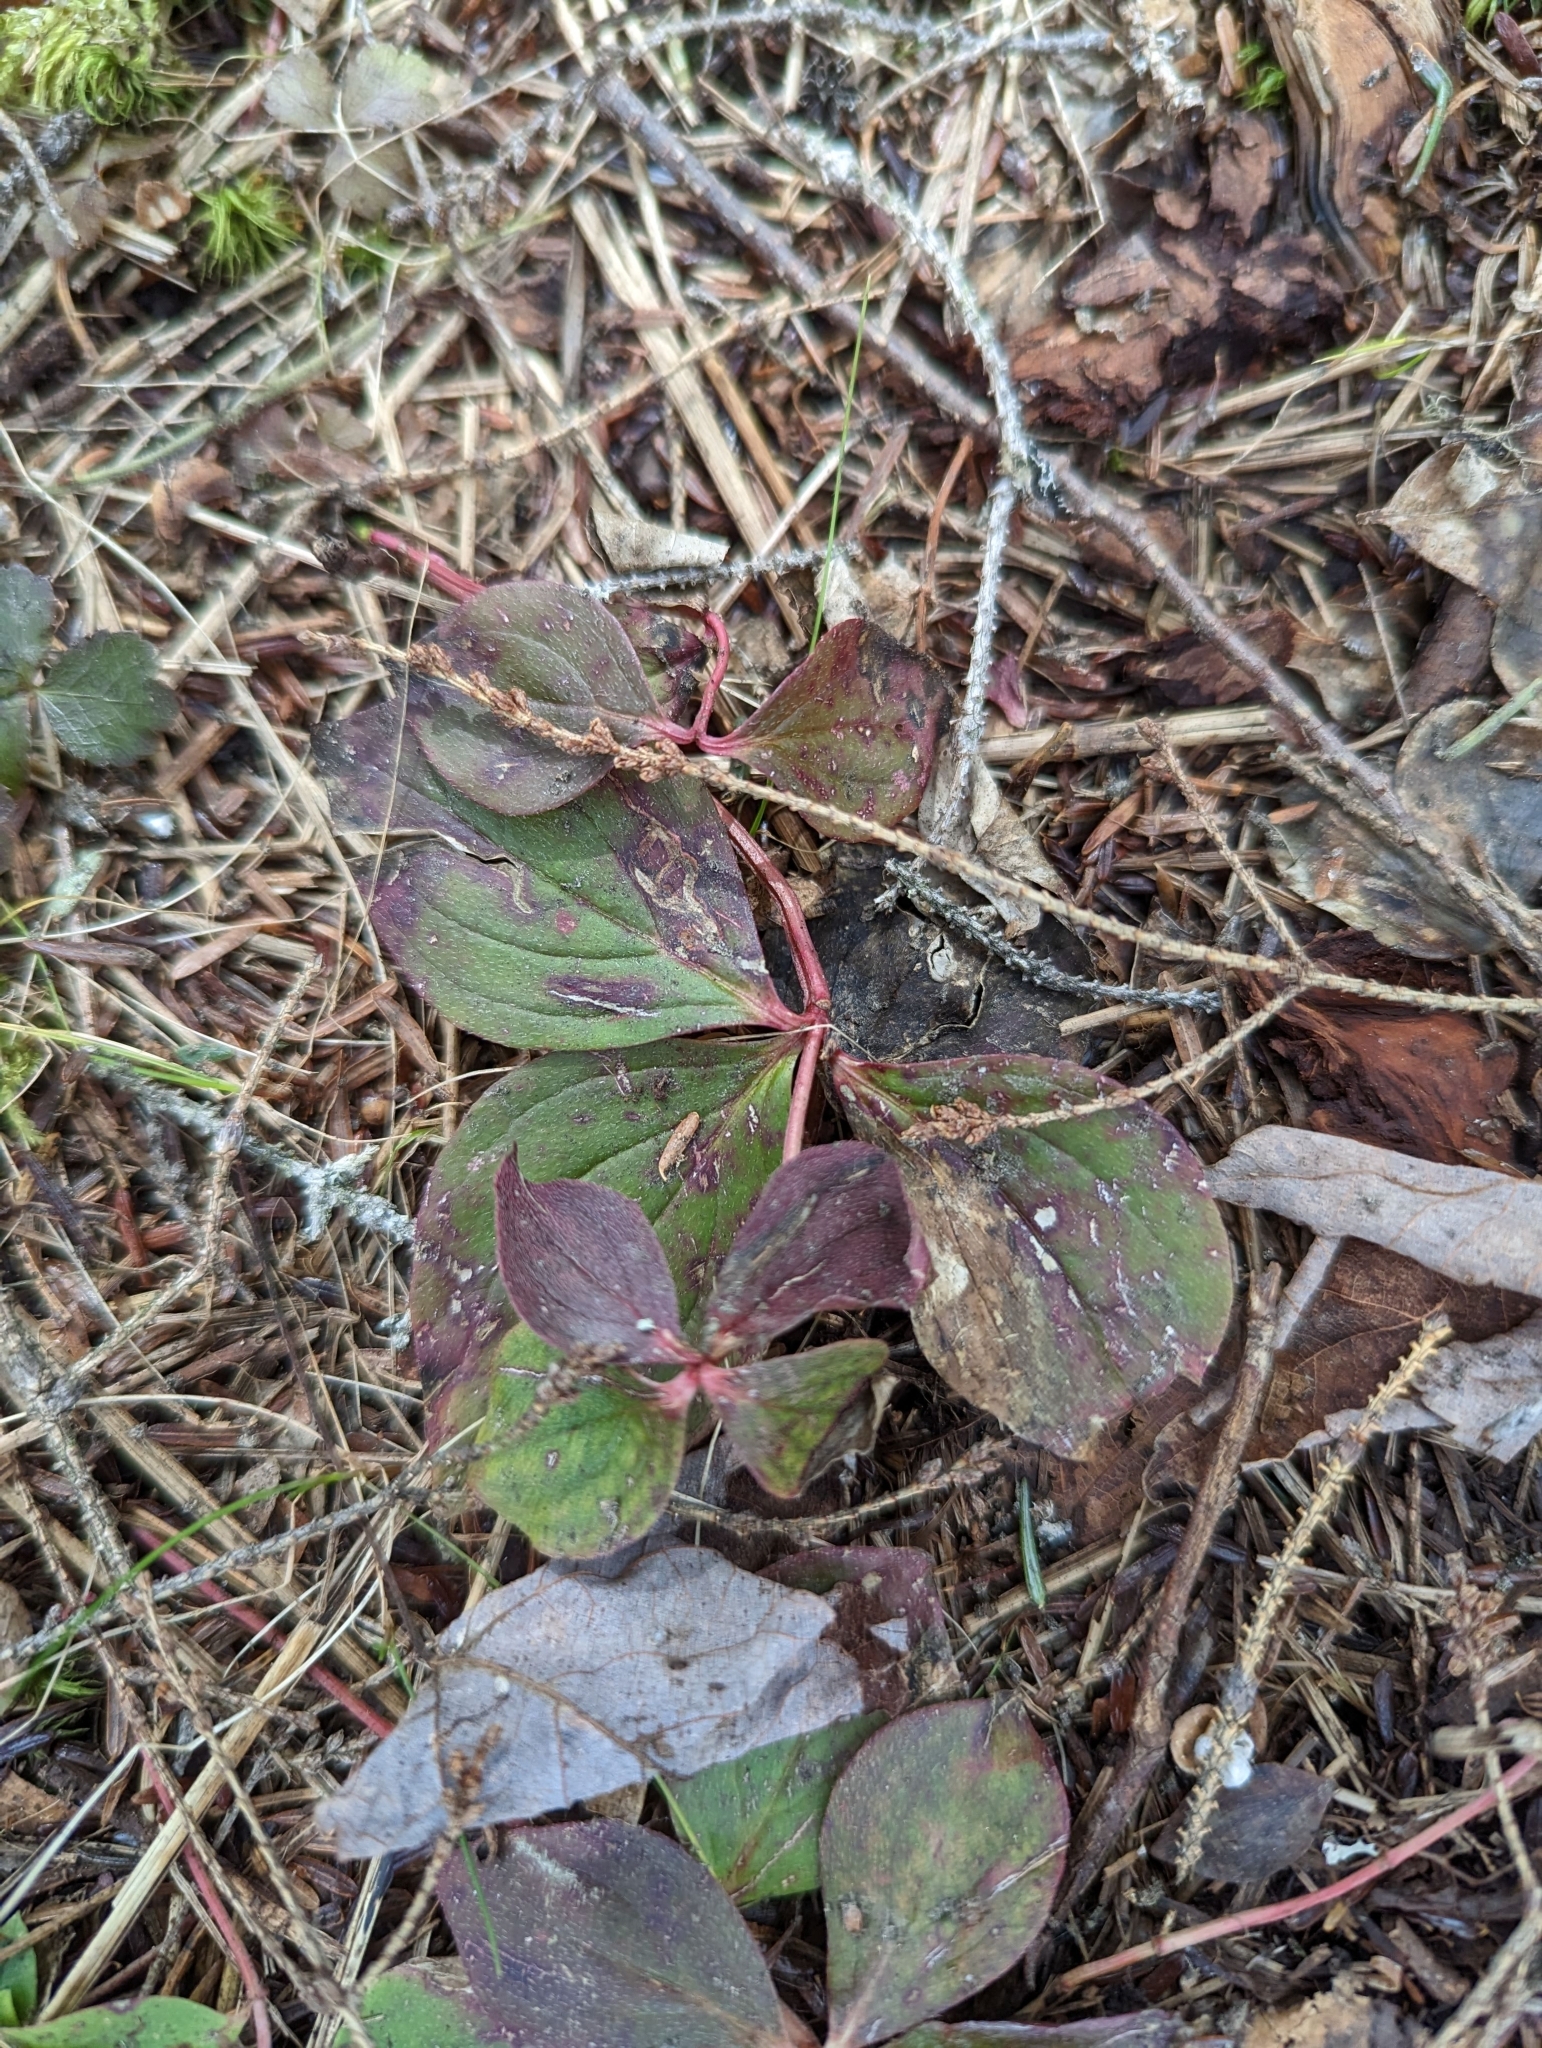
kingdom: Plantae
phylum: Tracheophyta
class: Magnoliopsida
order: Cornales
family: Cornaceae
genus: Cornus
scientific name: Cornus canadensis
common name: Creeping dogwood
